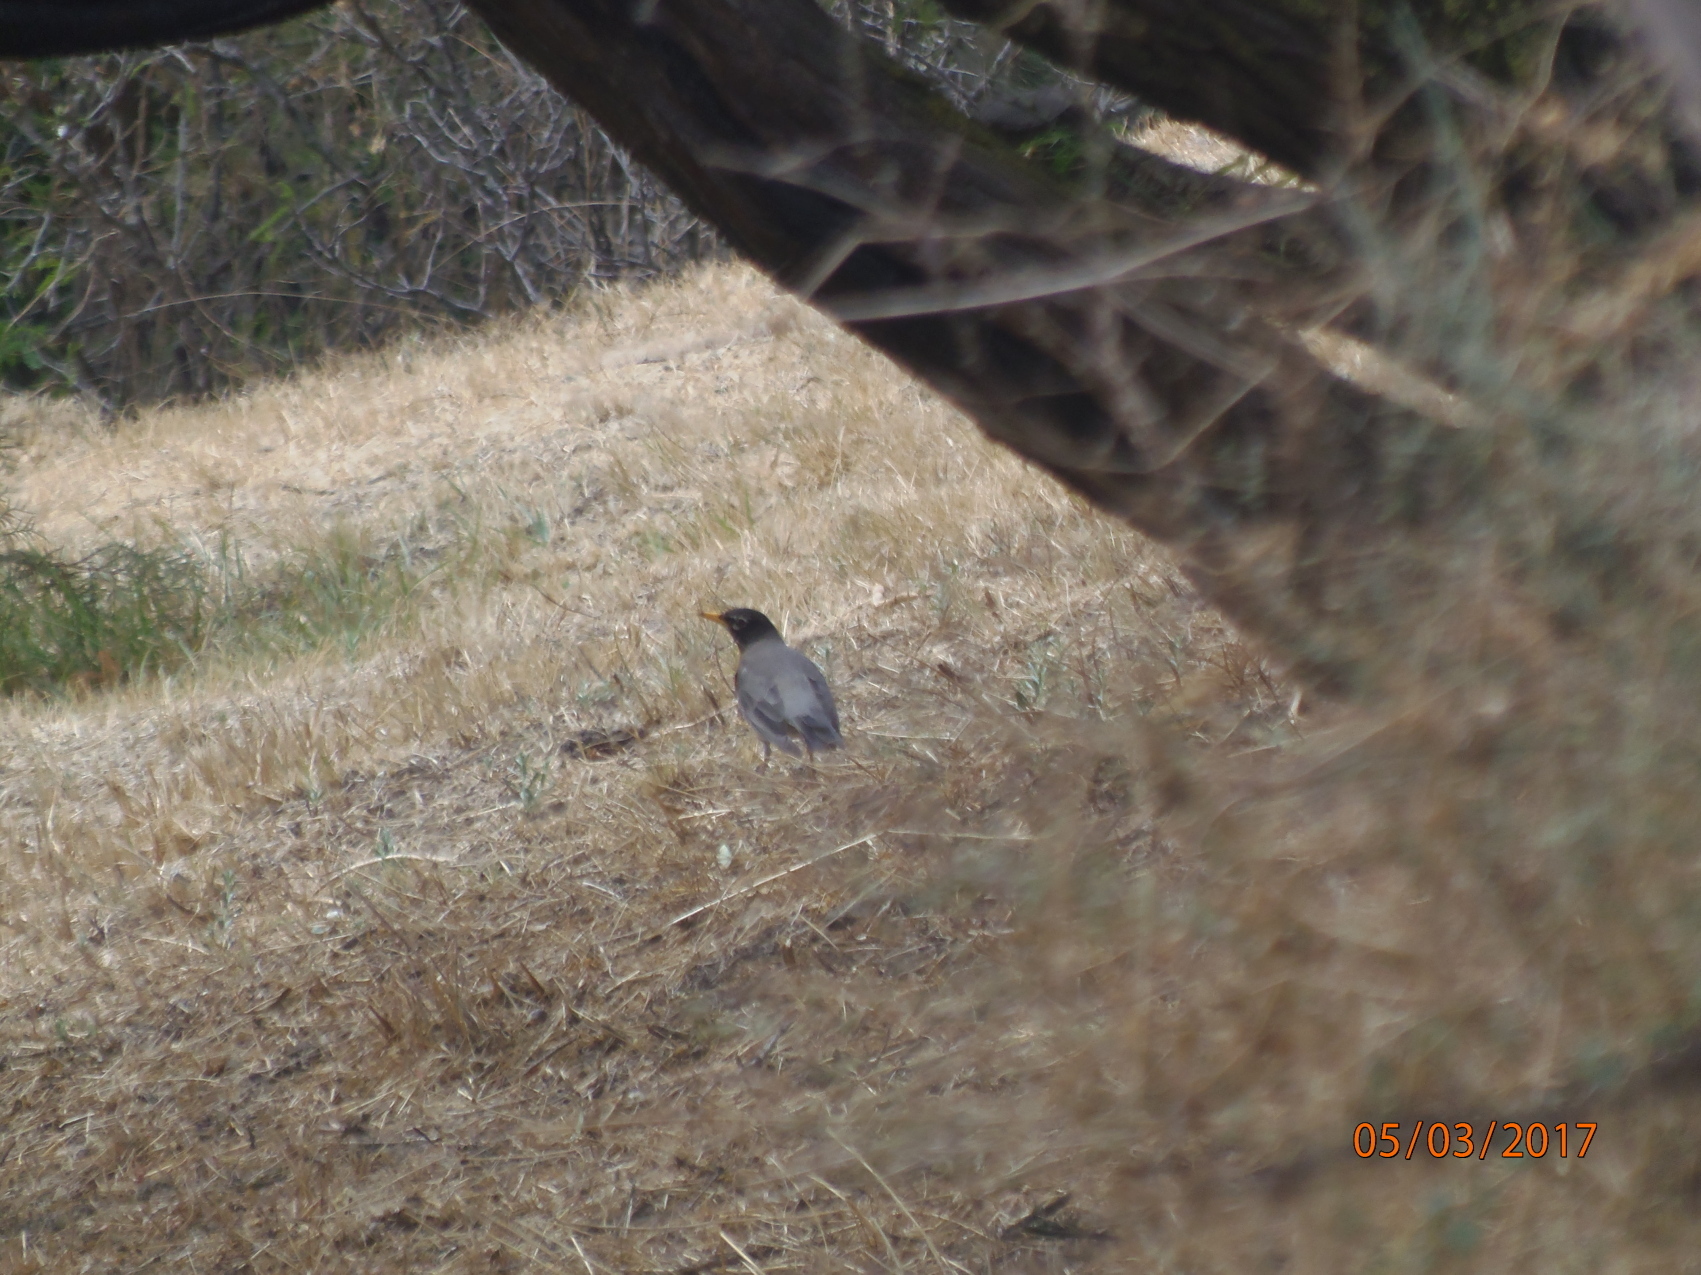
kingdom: Animalia
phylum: Chordata
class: Aves
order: Passeriformes
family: Turdidae
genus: Turdus
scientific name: Turdus migratorius
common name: American robin
